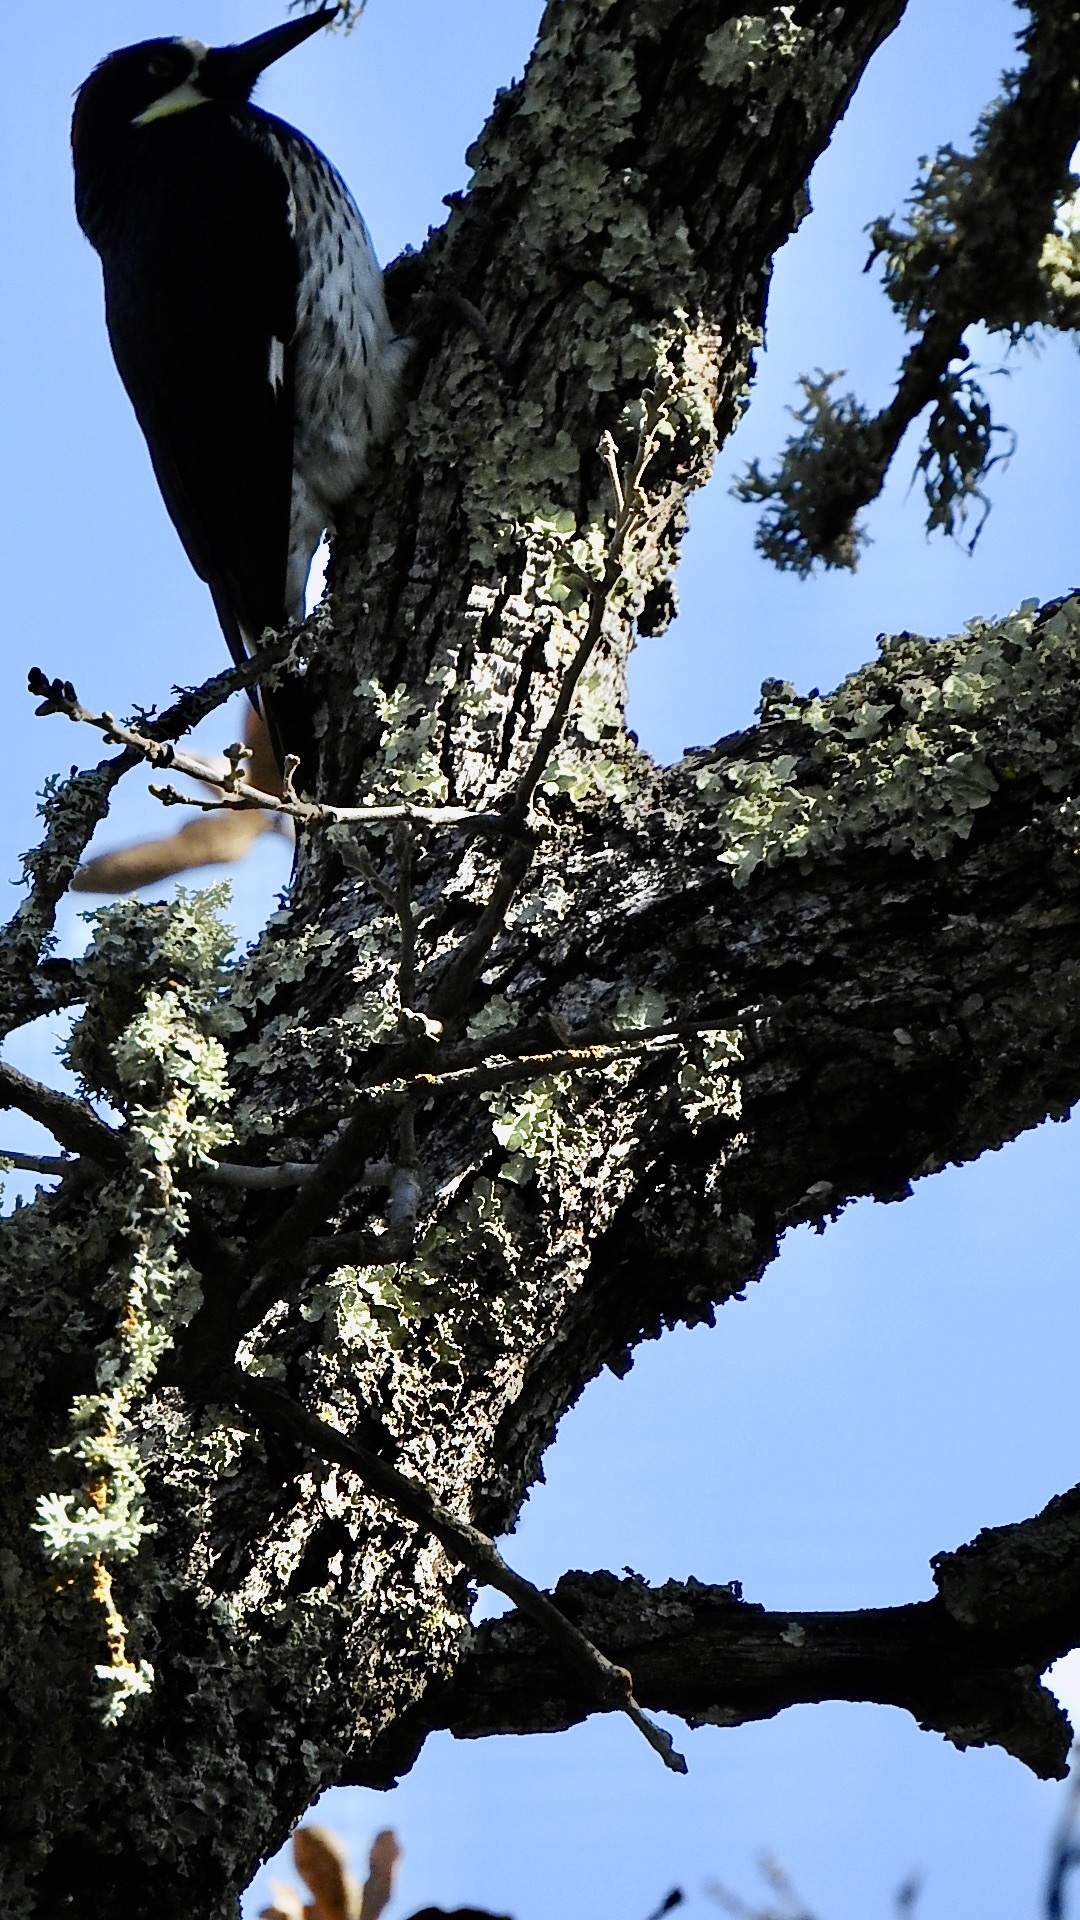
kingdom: Animalia
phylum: Chordata
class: Aves
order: Piciformes
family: Picidae
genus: Melanerpes
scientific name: Melanerpes formicivorus
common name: Acorn woodpecker
